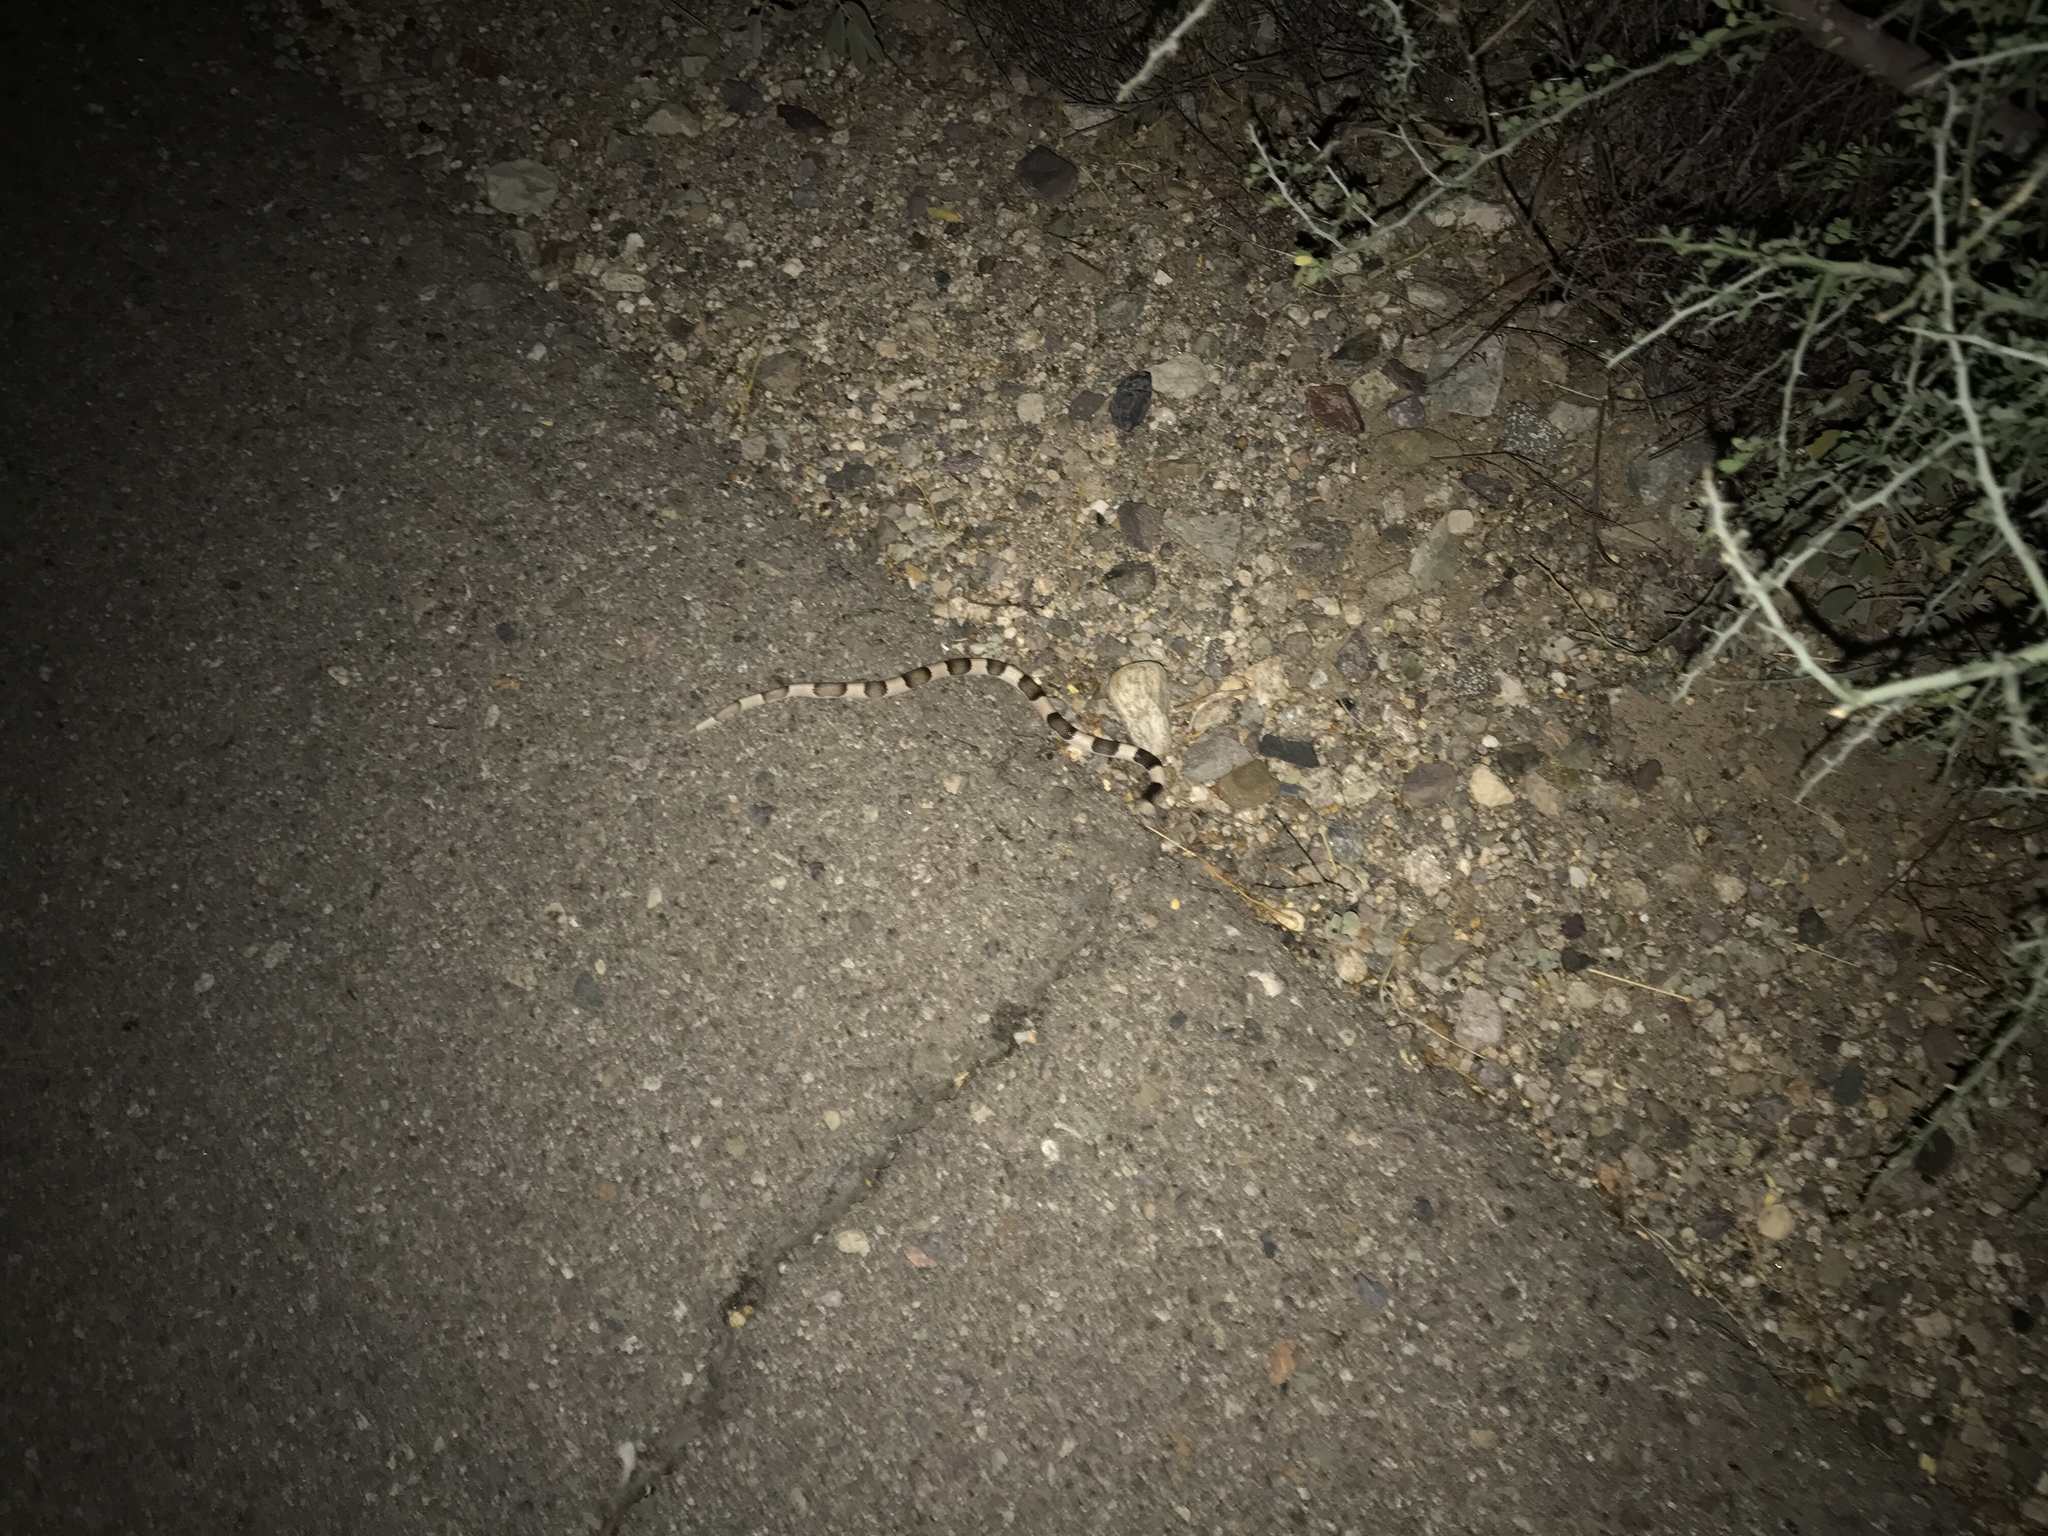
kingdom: Animalia
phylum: Chordata
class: Squamata
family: Colubridae
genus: Phyllorhynchus
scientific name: Phyllorhynchus browni
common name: Saddled leafnose snake
